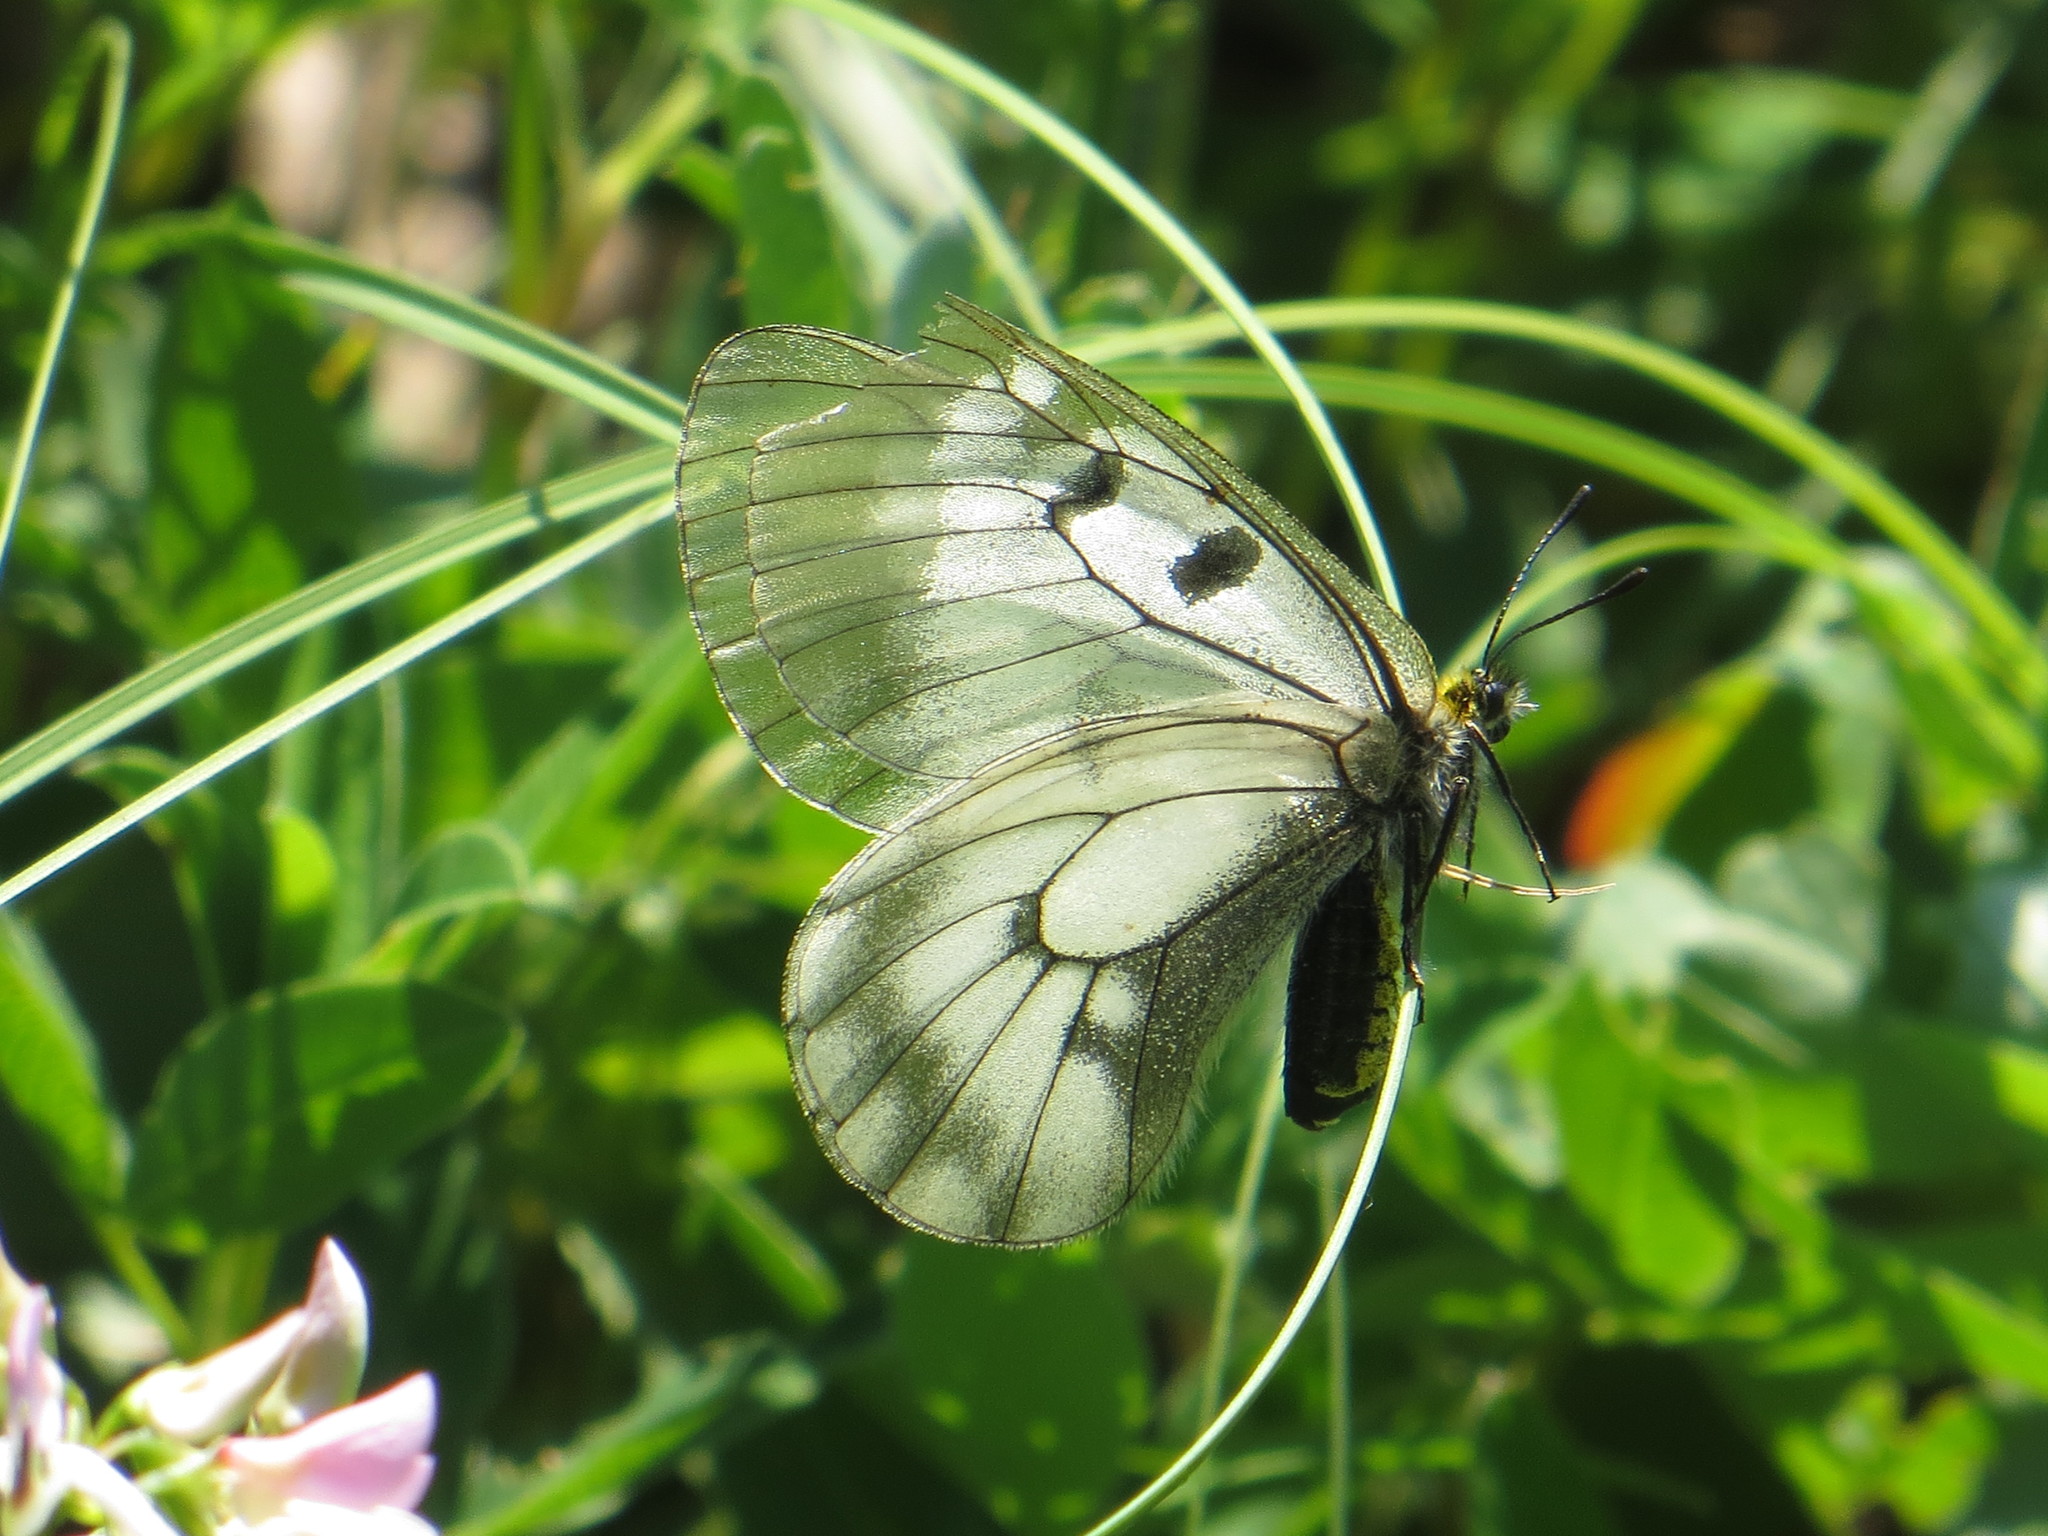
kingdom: Animalia
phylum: Arthropoda
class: Insecta
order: Lepidoptera
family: Papilionidae
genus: Parnassius
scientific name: Parnassius mnemosyne
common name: Clouded apollo
